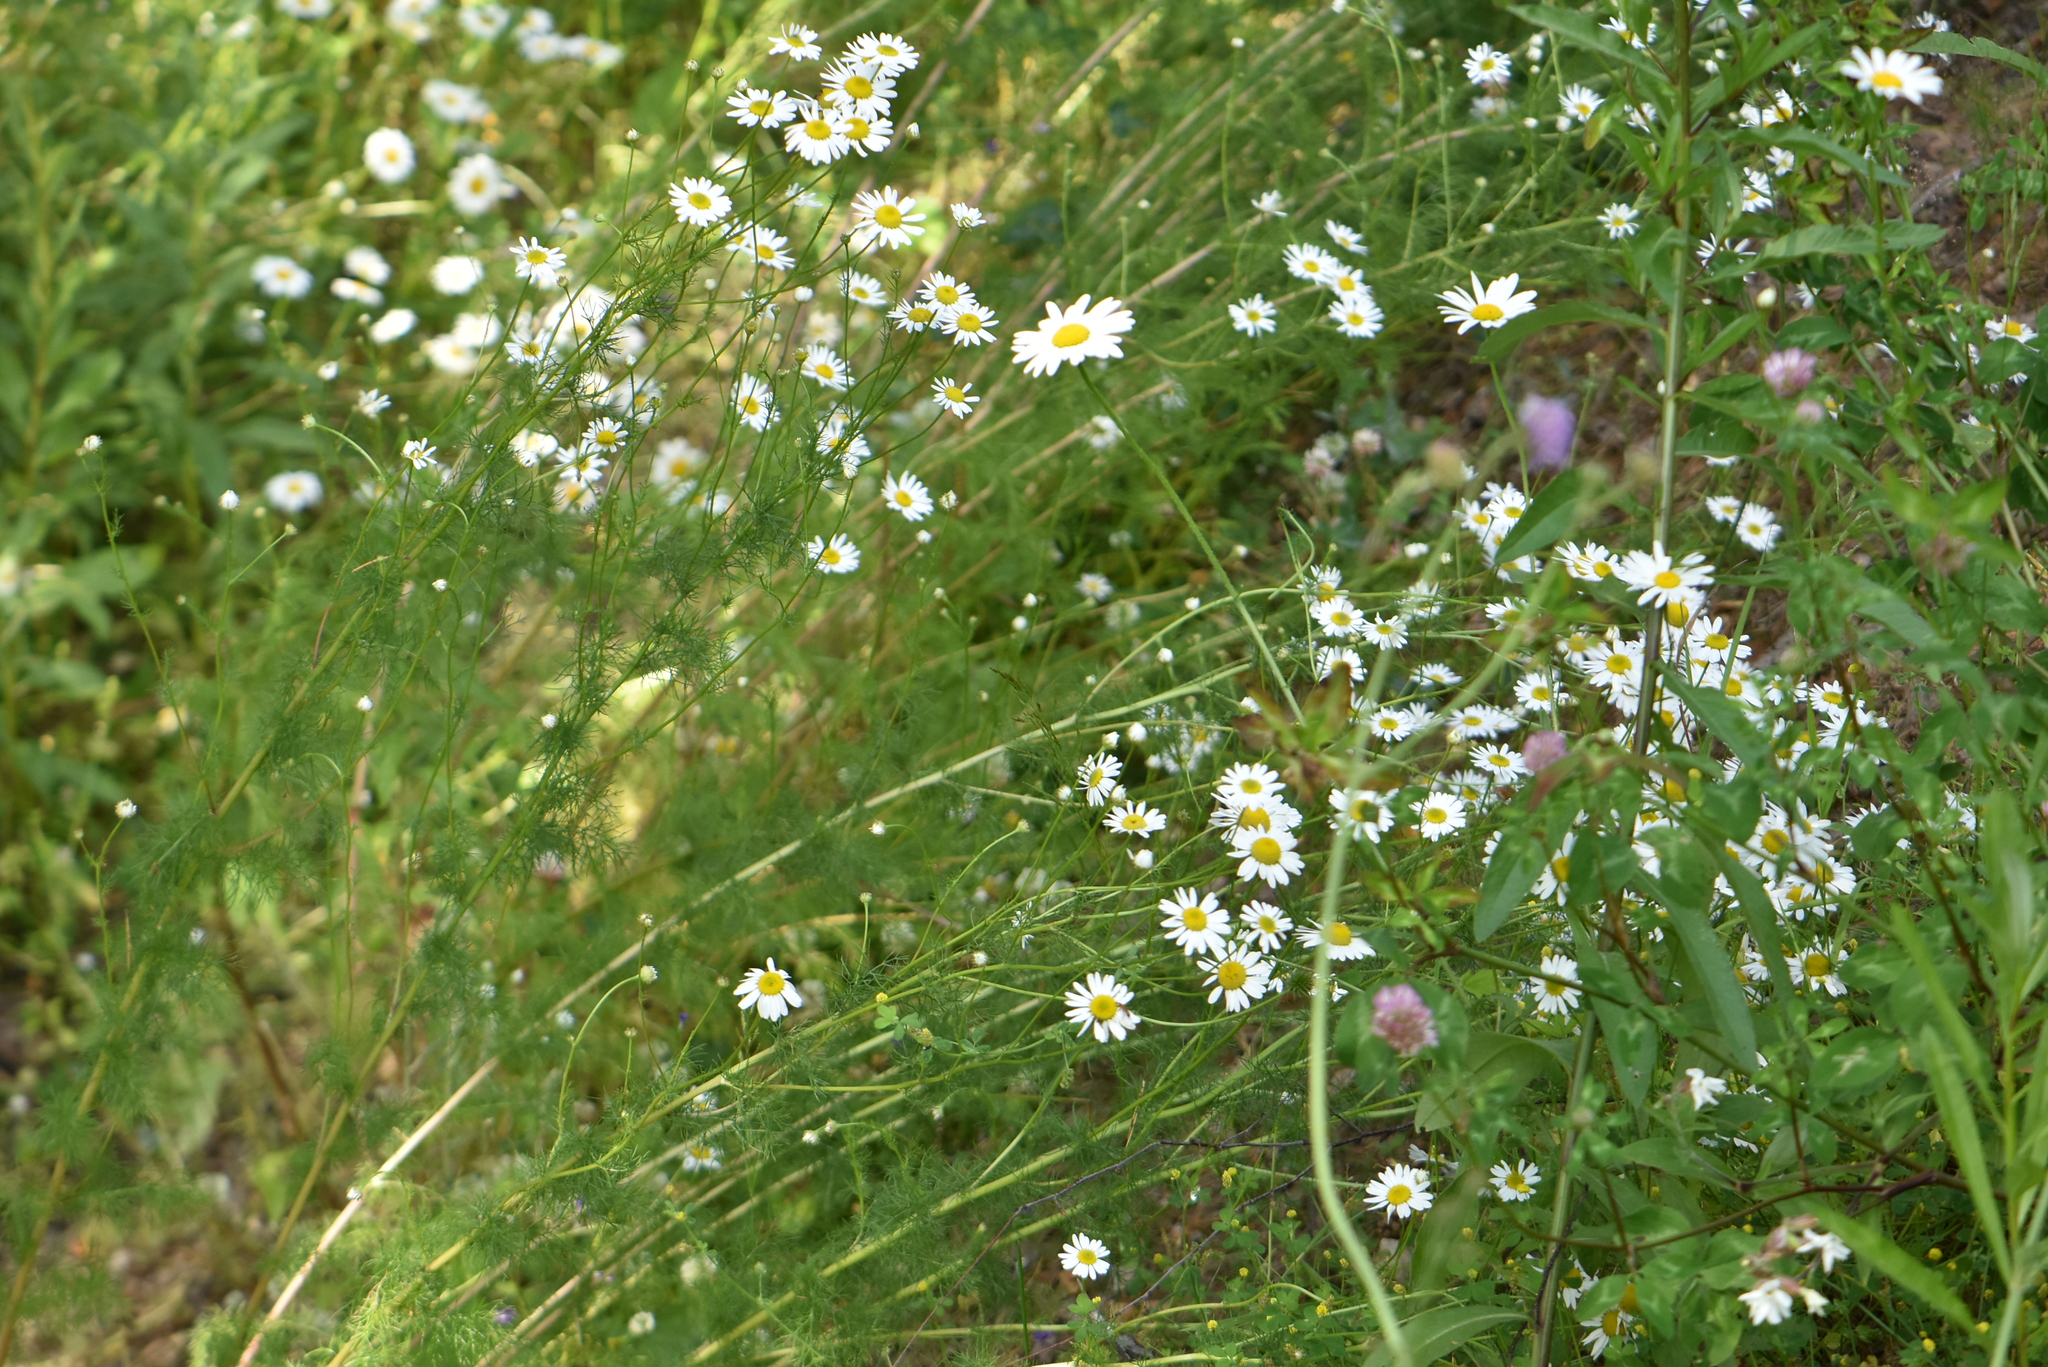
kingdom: Plantae
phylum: Tracheophyta
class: Magnoliopsida
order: Asterales
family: Asteraceae
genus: Tripleurospermum
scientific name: Tripleurospermum inodorum
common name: Scentless mayweed
